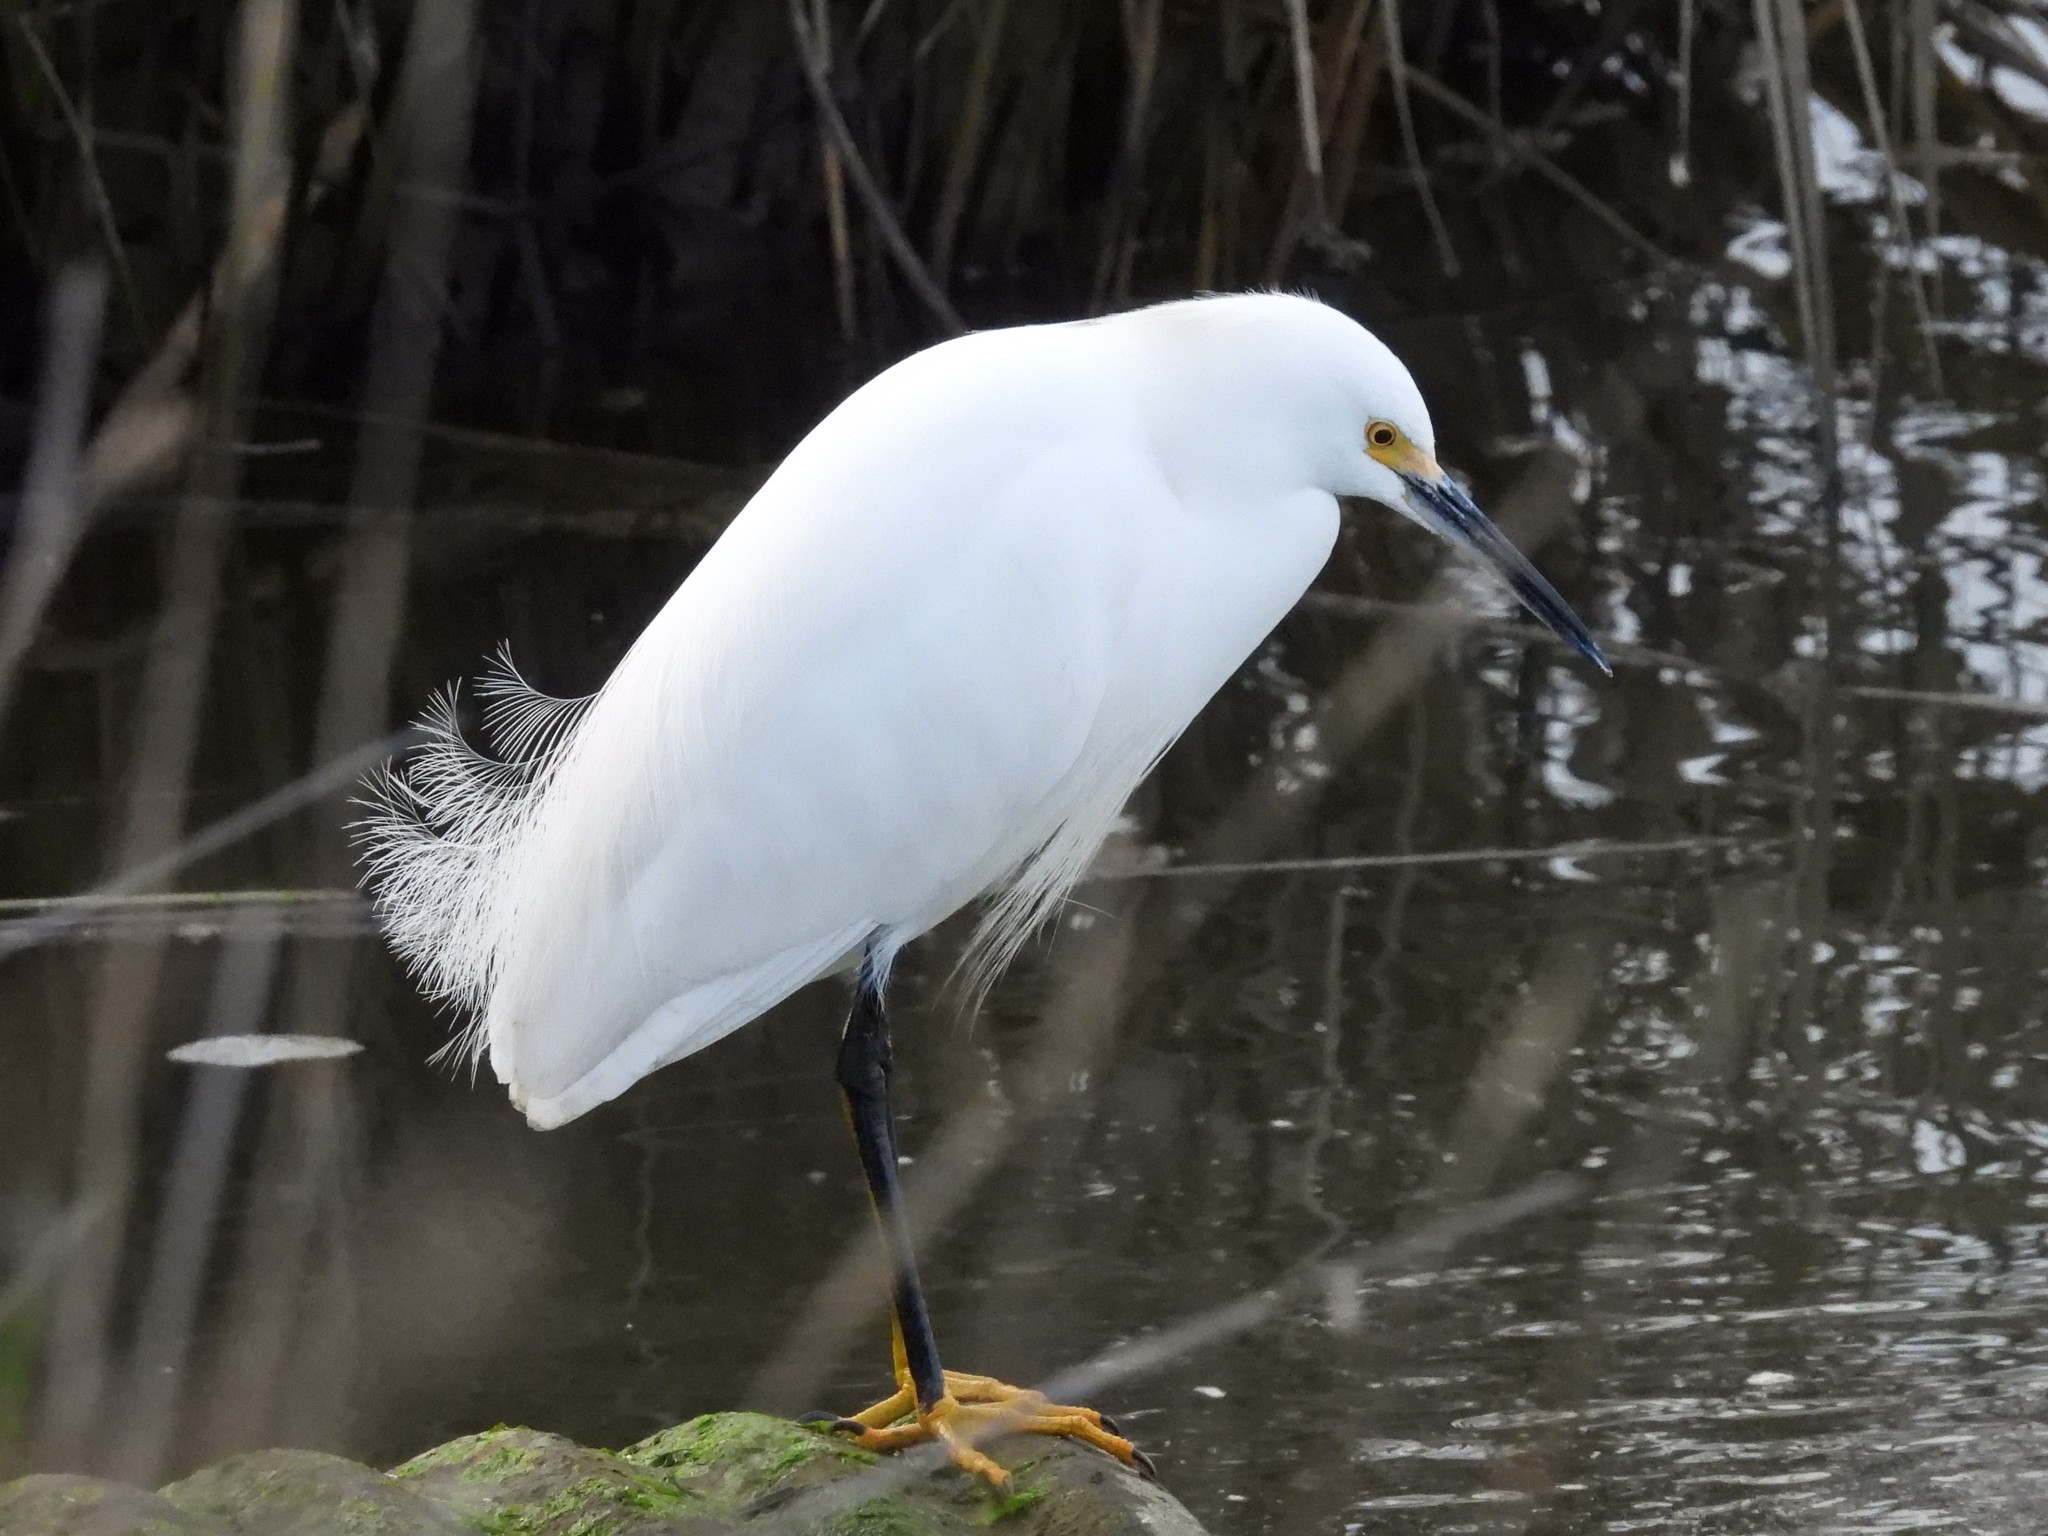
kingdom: Animalia
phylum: Chordata
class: Aves
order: Pelecaniformes
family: Ardeidae
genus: Egretta
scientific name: Egretta thula
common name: Snowy egret
